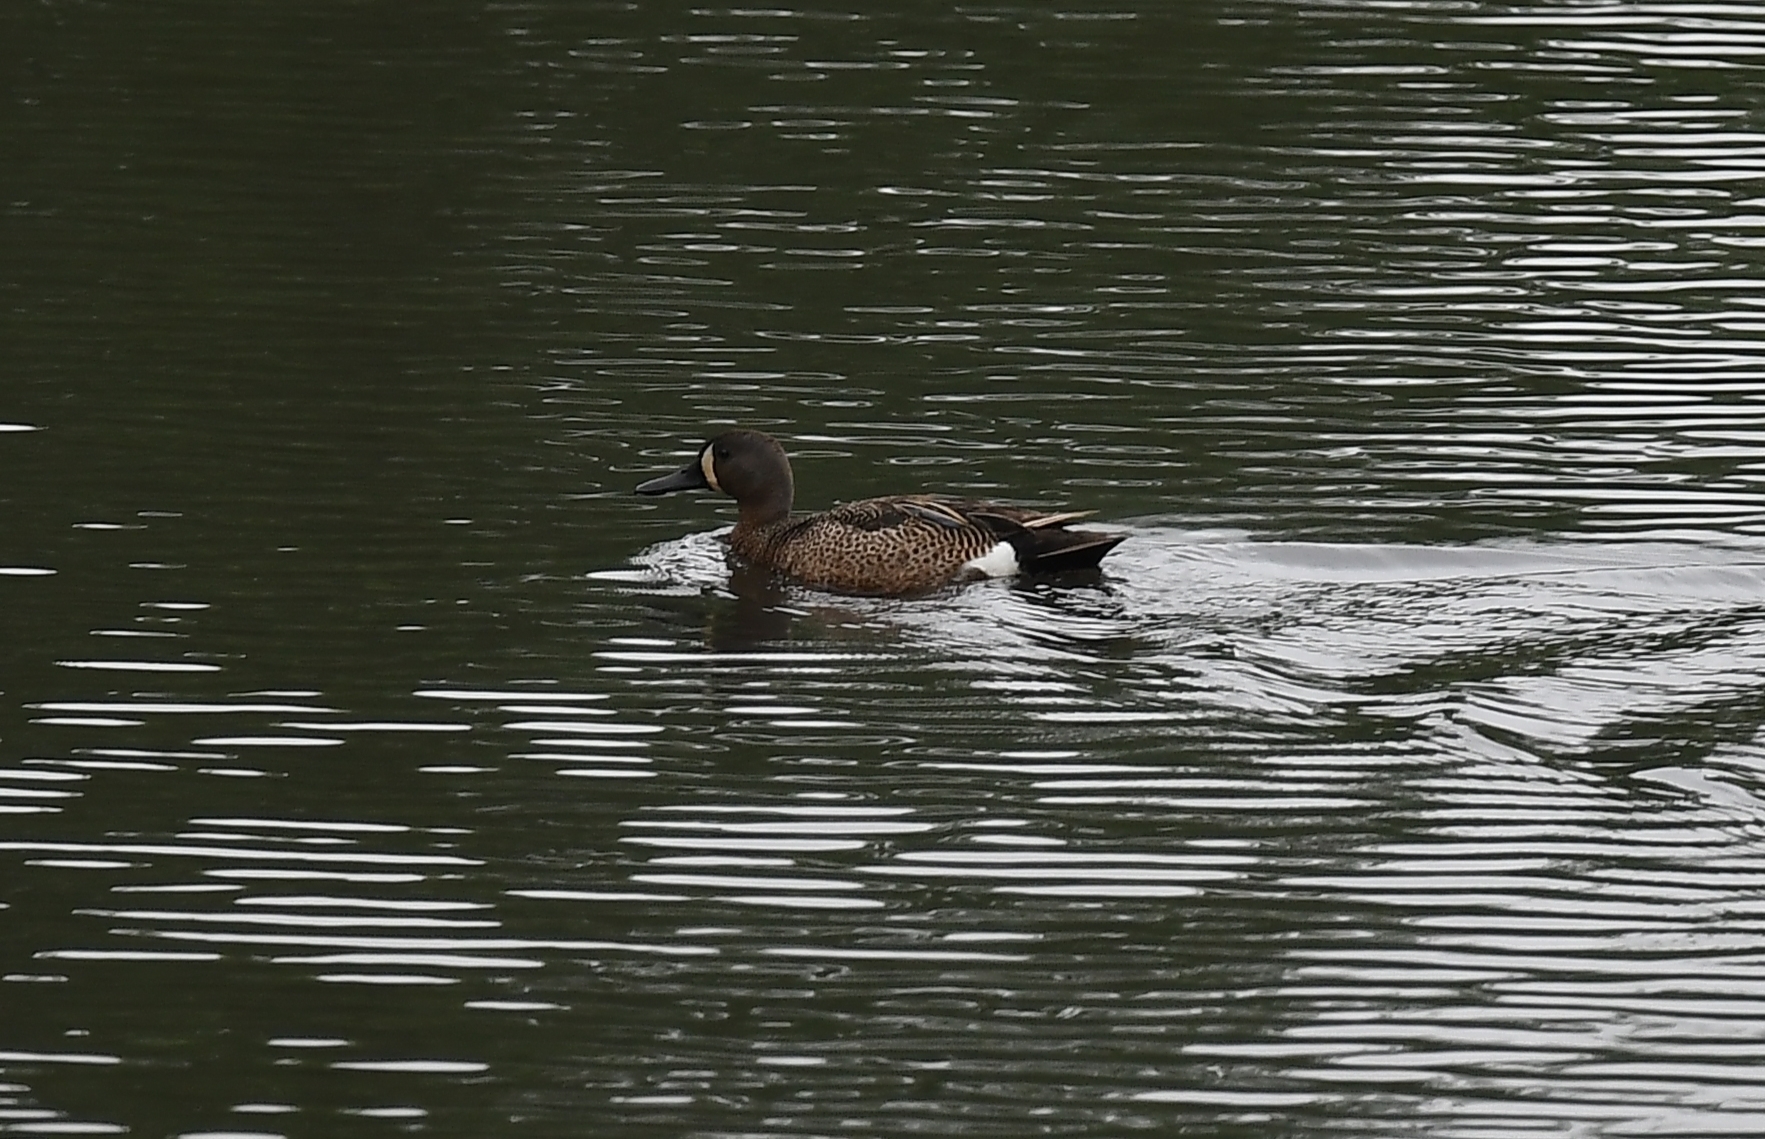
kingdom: Animalia
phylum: Chordata
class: Aves
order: Anseriformes
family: Anatidae
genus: Spatula
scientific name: Spatula discors
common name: Blue-winged teal
